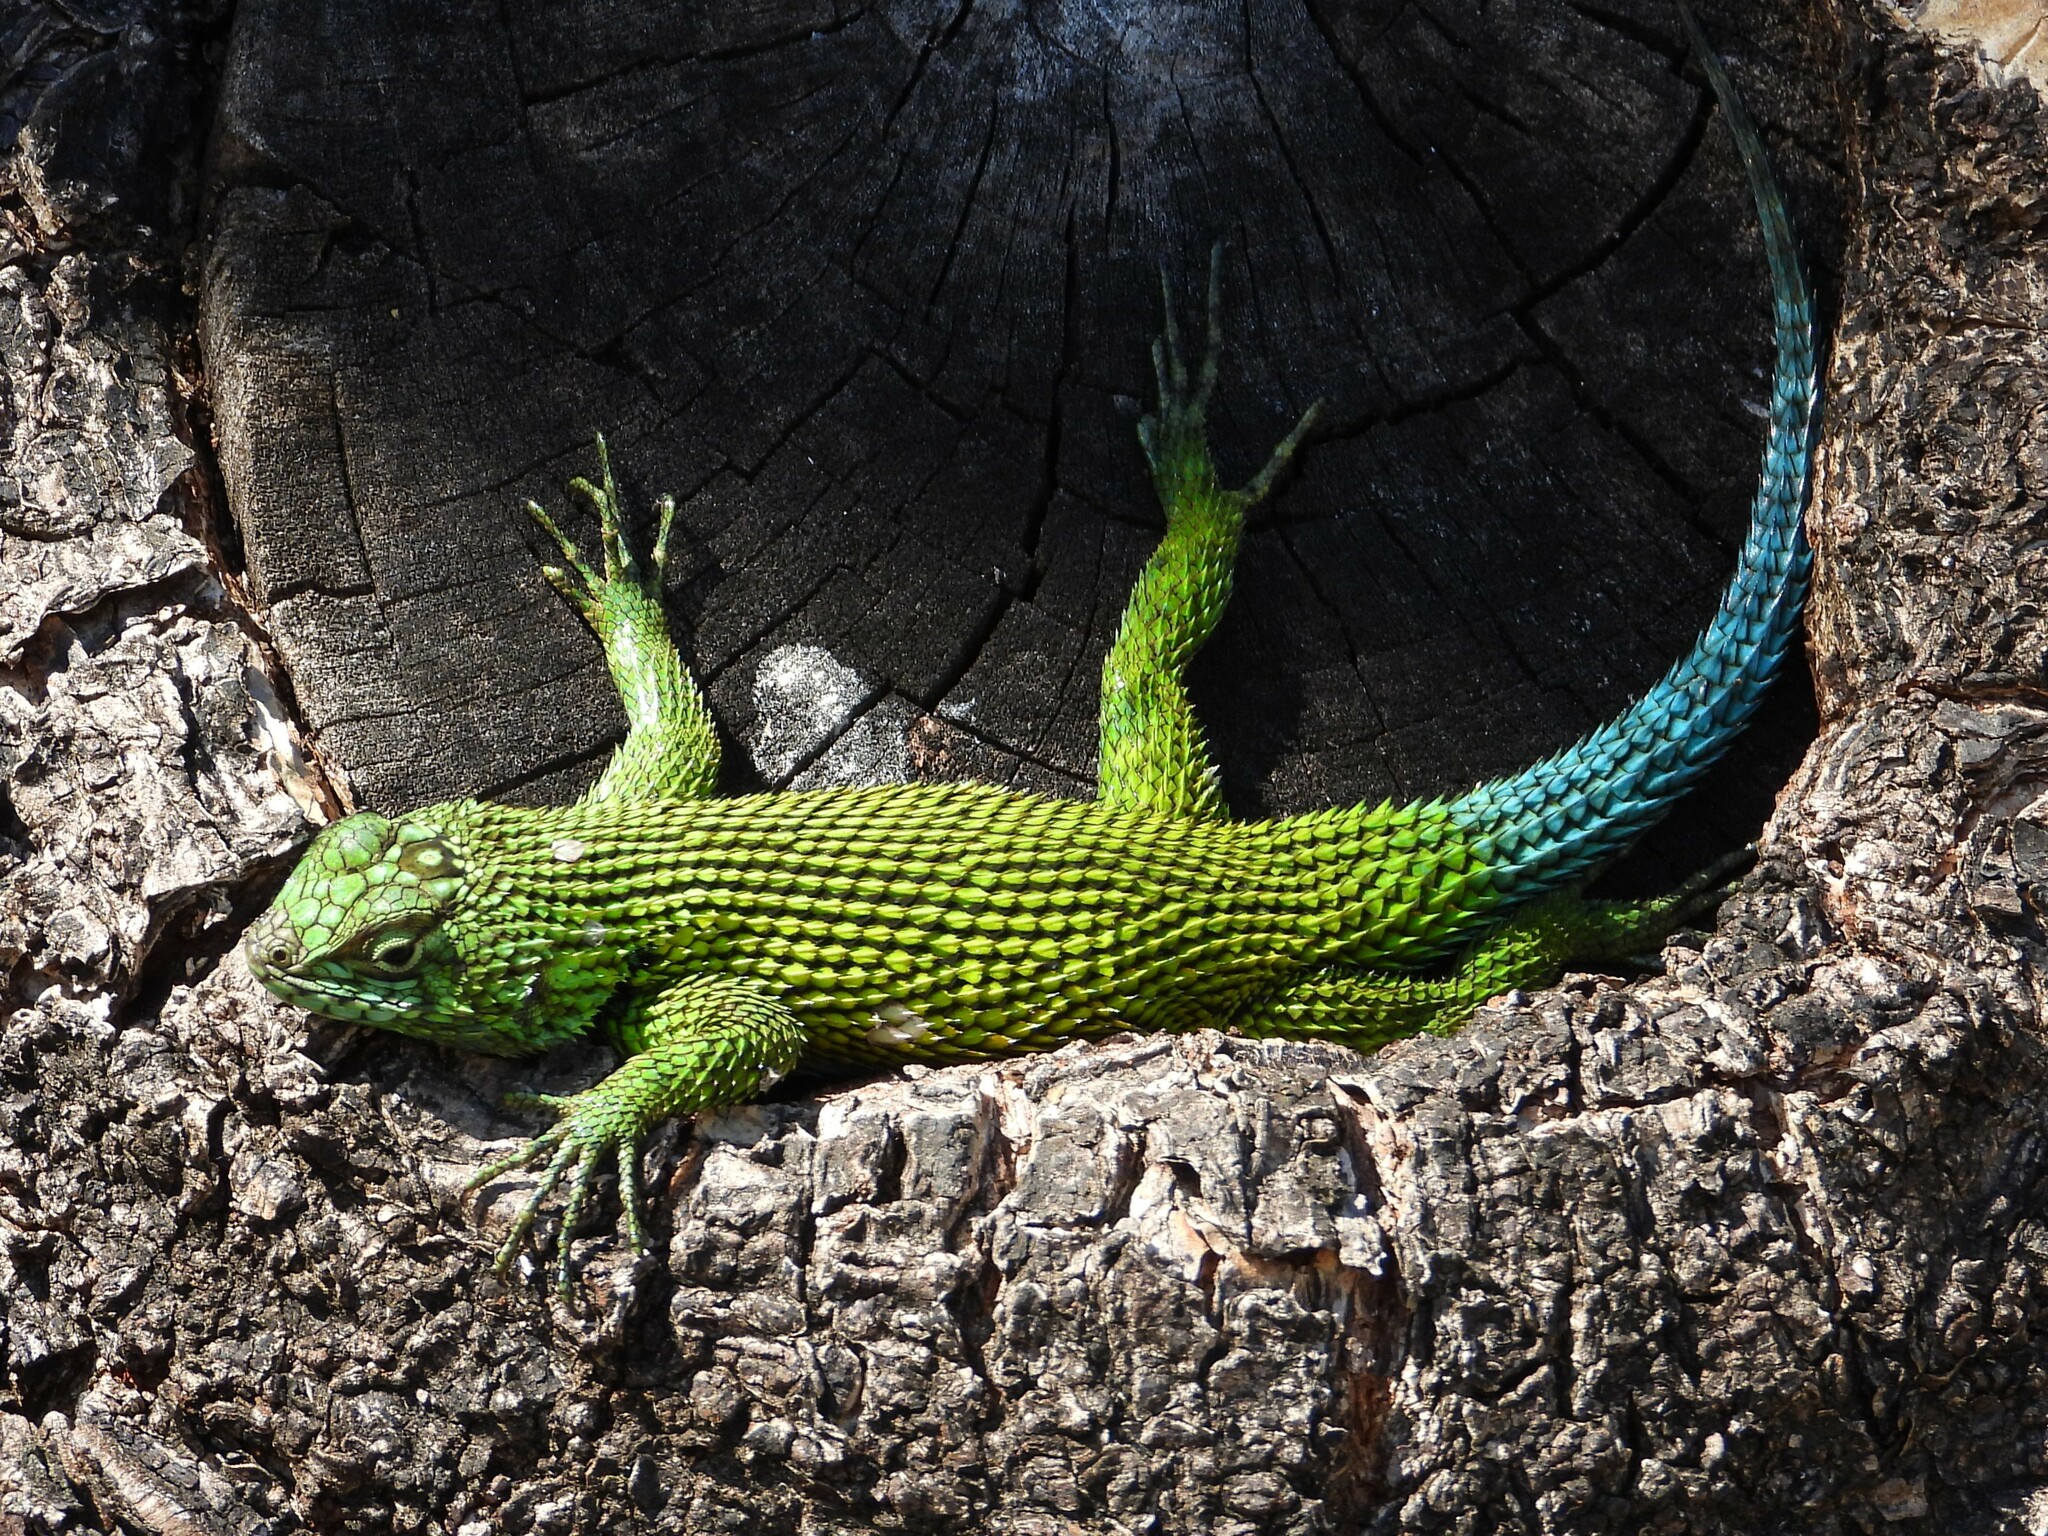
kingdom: Animalia
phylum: Chordata
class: Squamata
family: Phrynosomatidae
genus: Sceloporus
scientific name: Sceloporus malachiticus
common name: Green spiny lizard
